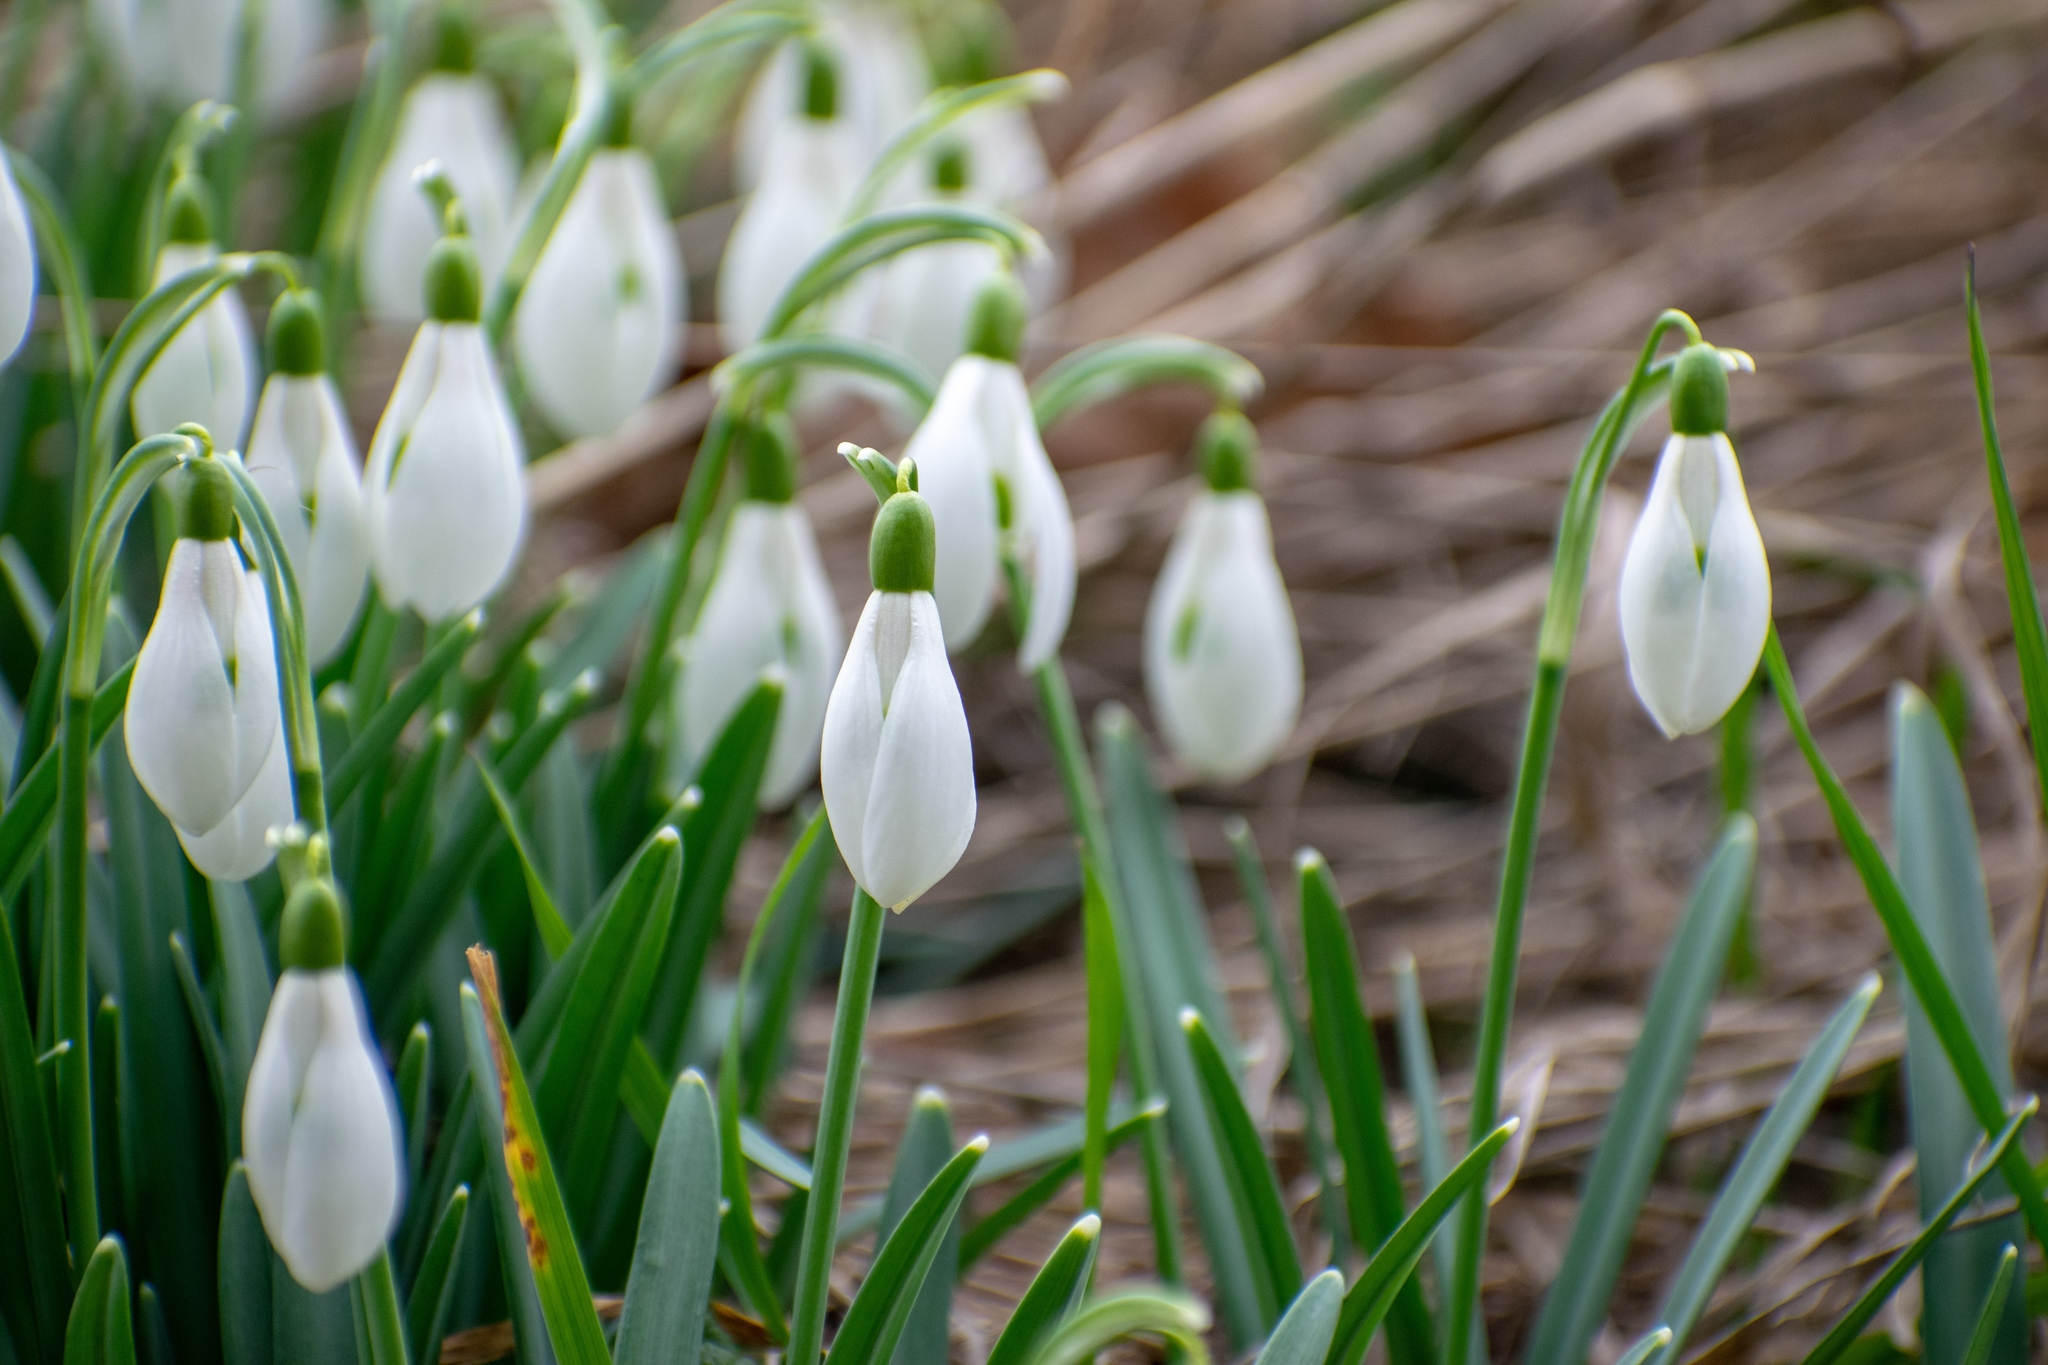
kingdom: Plantae
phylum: Tracheophyta
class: Liliopsida
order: Asparagales
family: Amaryllidaceae
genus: Galanthus
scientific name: Galanthus nivalis
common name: Snowdrop
